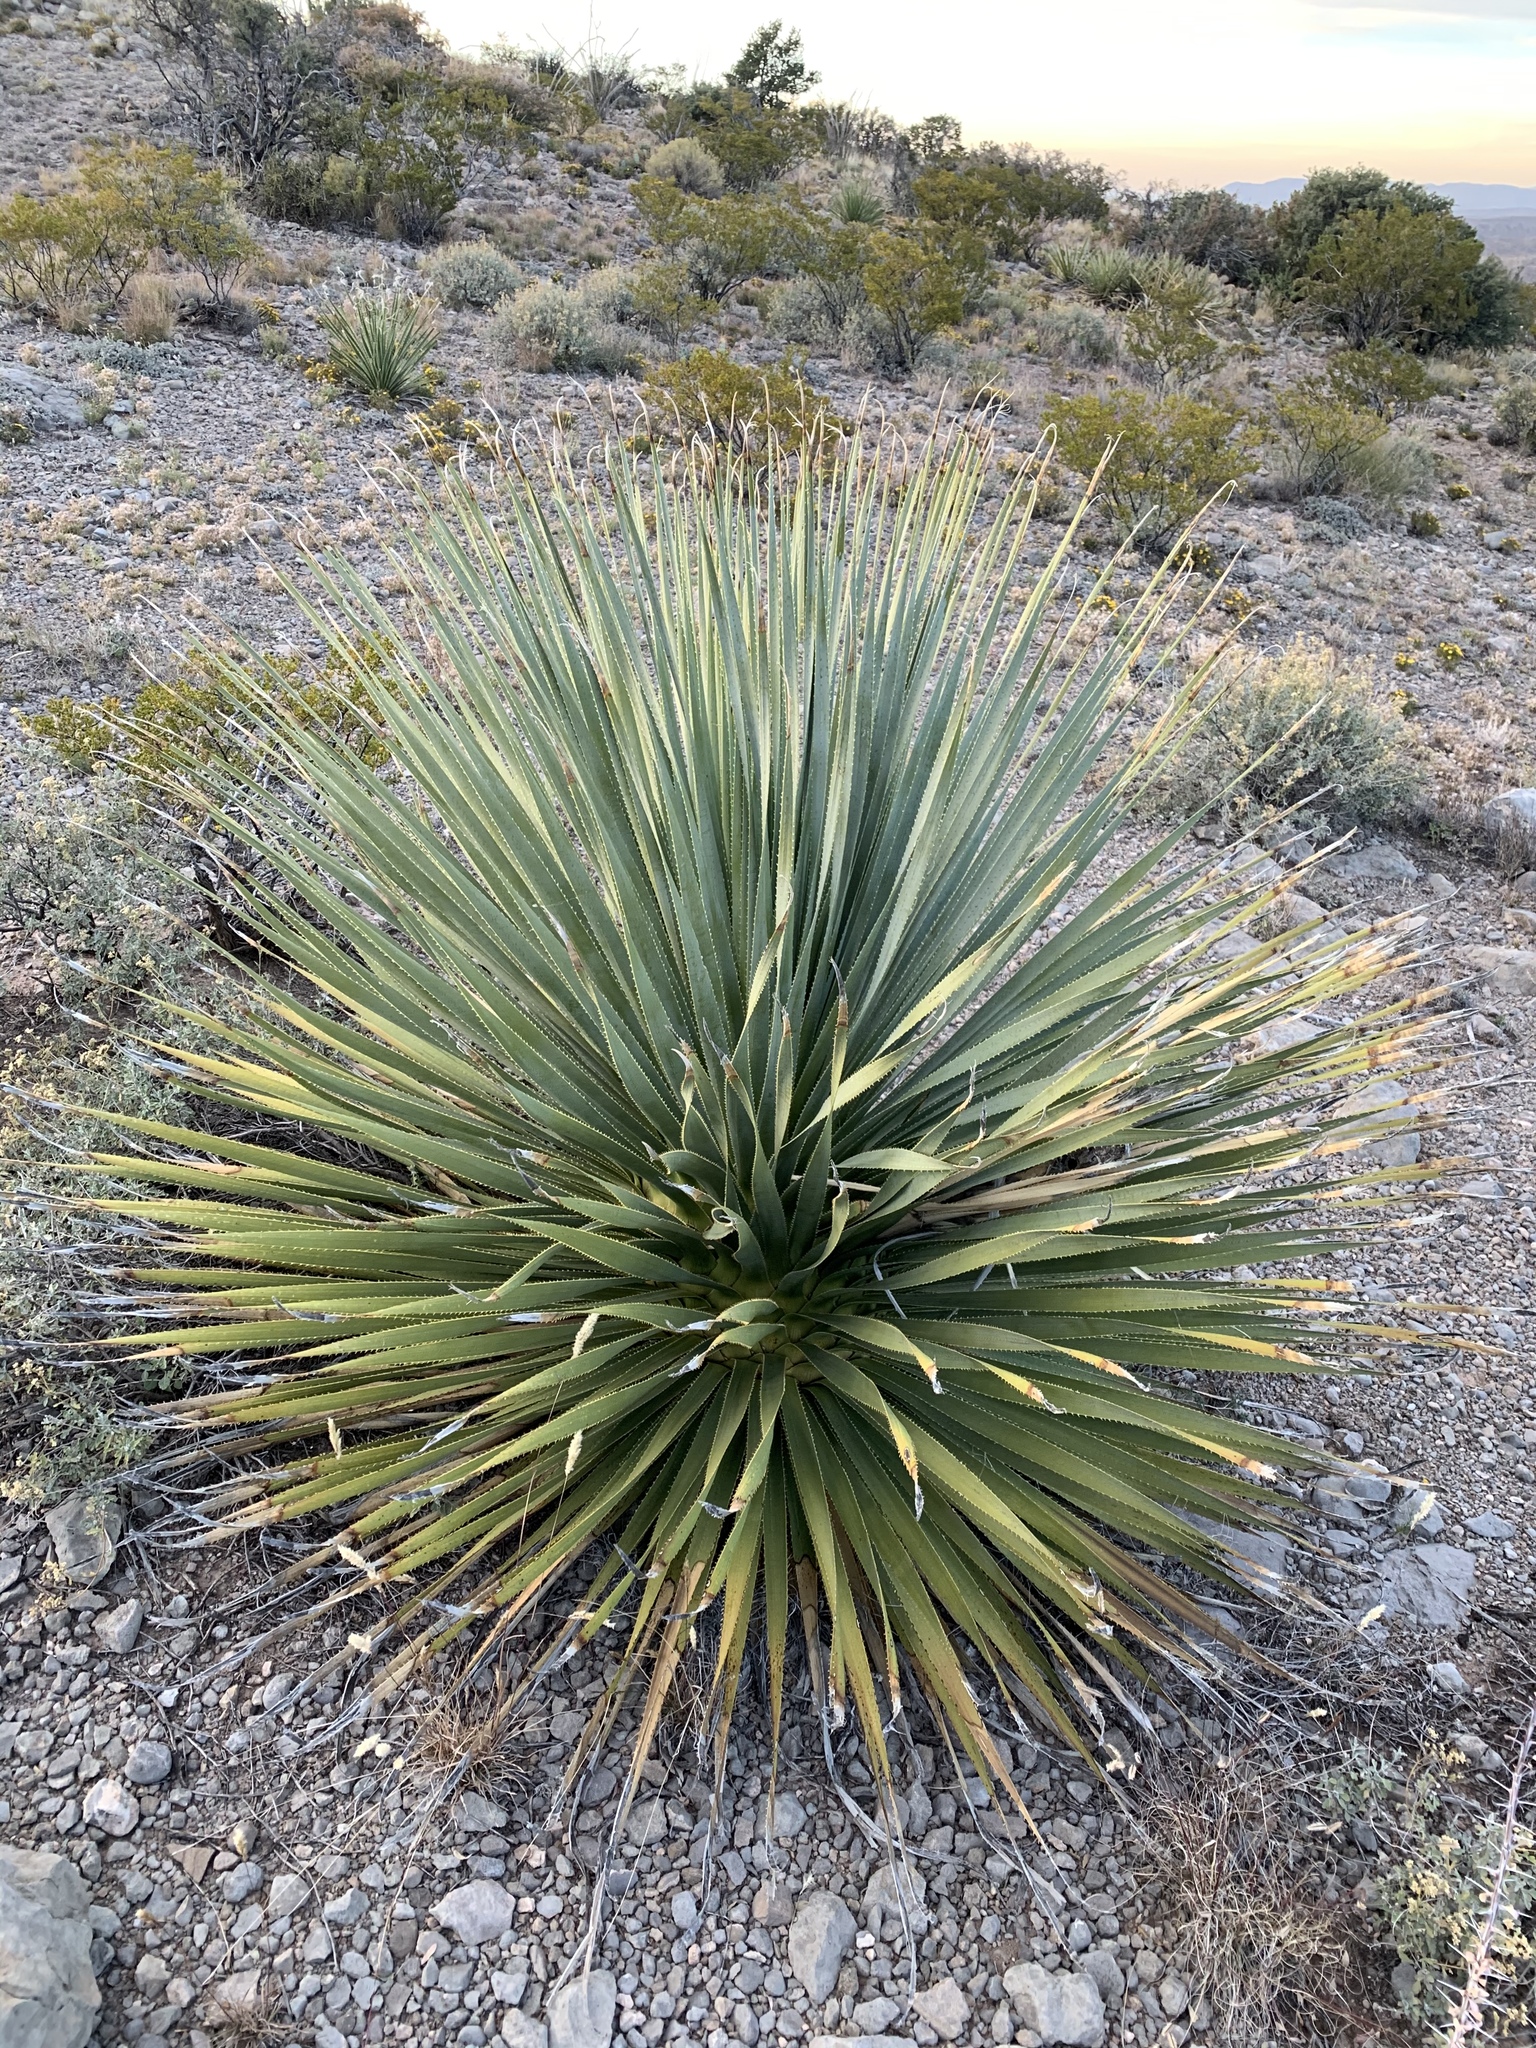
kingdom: Plantae
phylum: Tracheophyta
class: Liliopsida
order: Asparagales
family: Asparagaceae
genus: Dasylirion
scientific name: Dasylirion wheeleri
